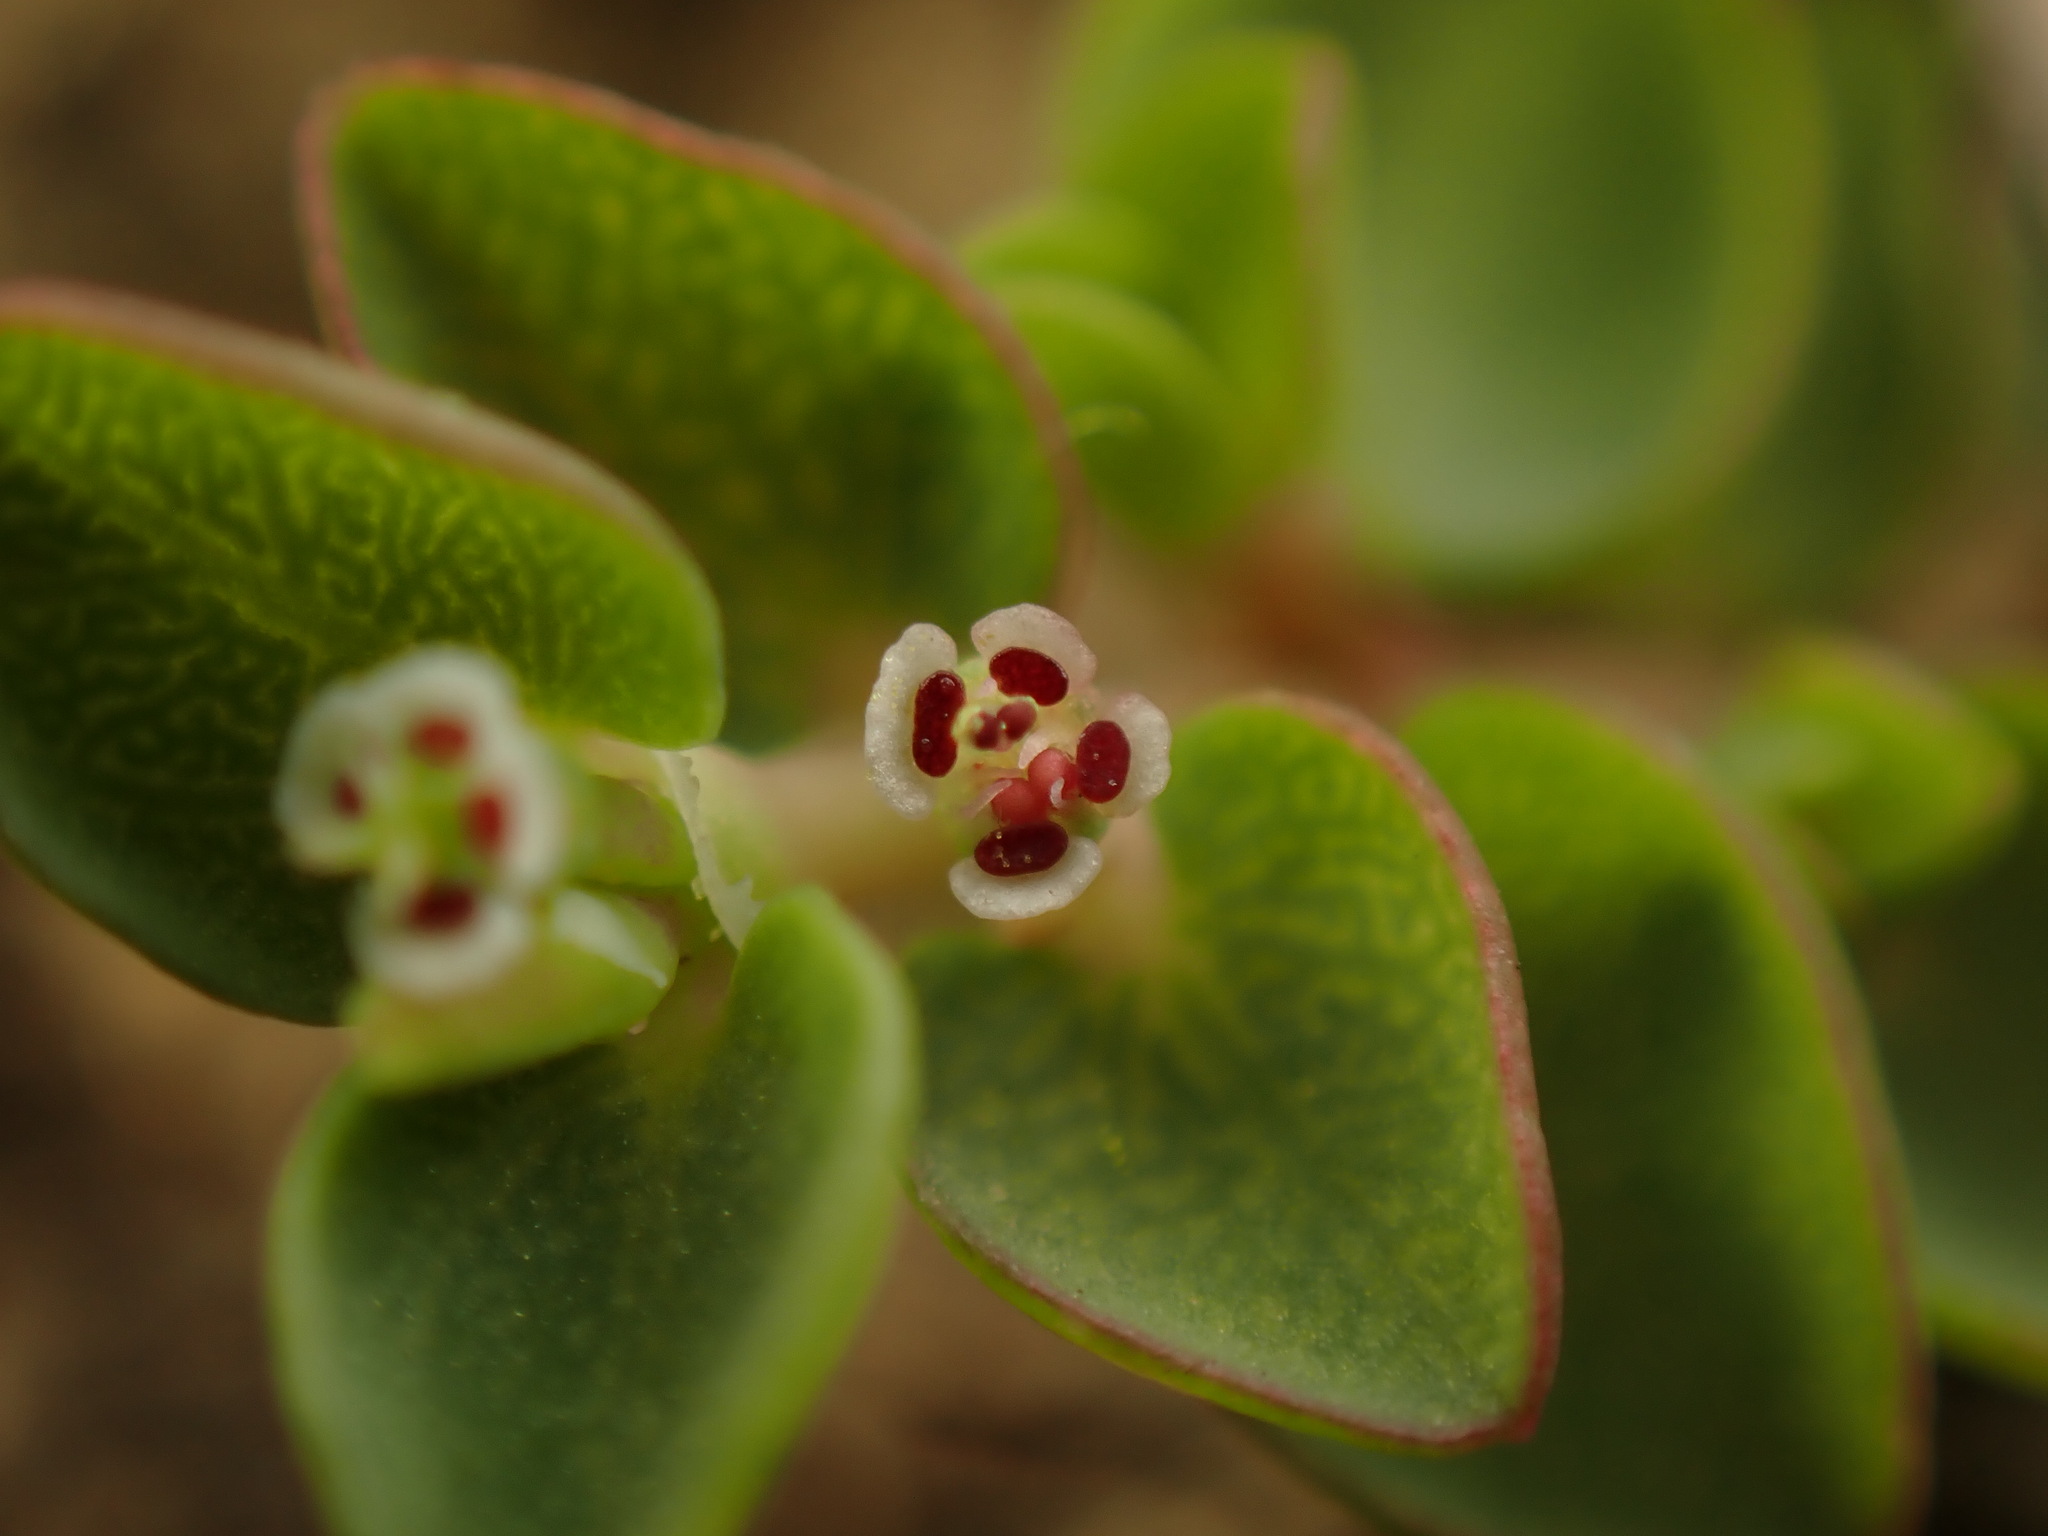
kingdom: Plantae
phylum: Tracheophyta
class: Magnoliopsida
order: Malpighiales
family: Euphorbiaceae
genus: Euphorbia
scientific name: Euphorbia serpens
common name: Matted sandmat
